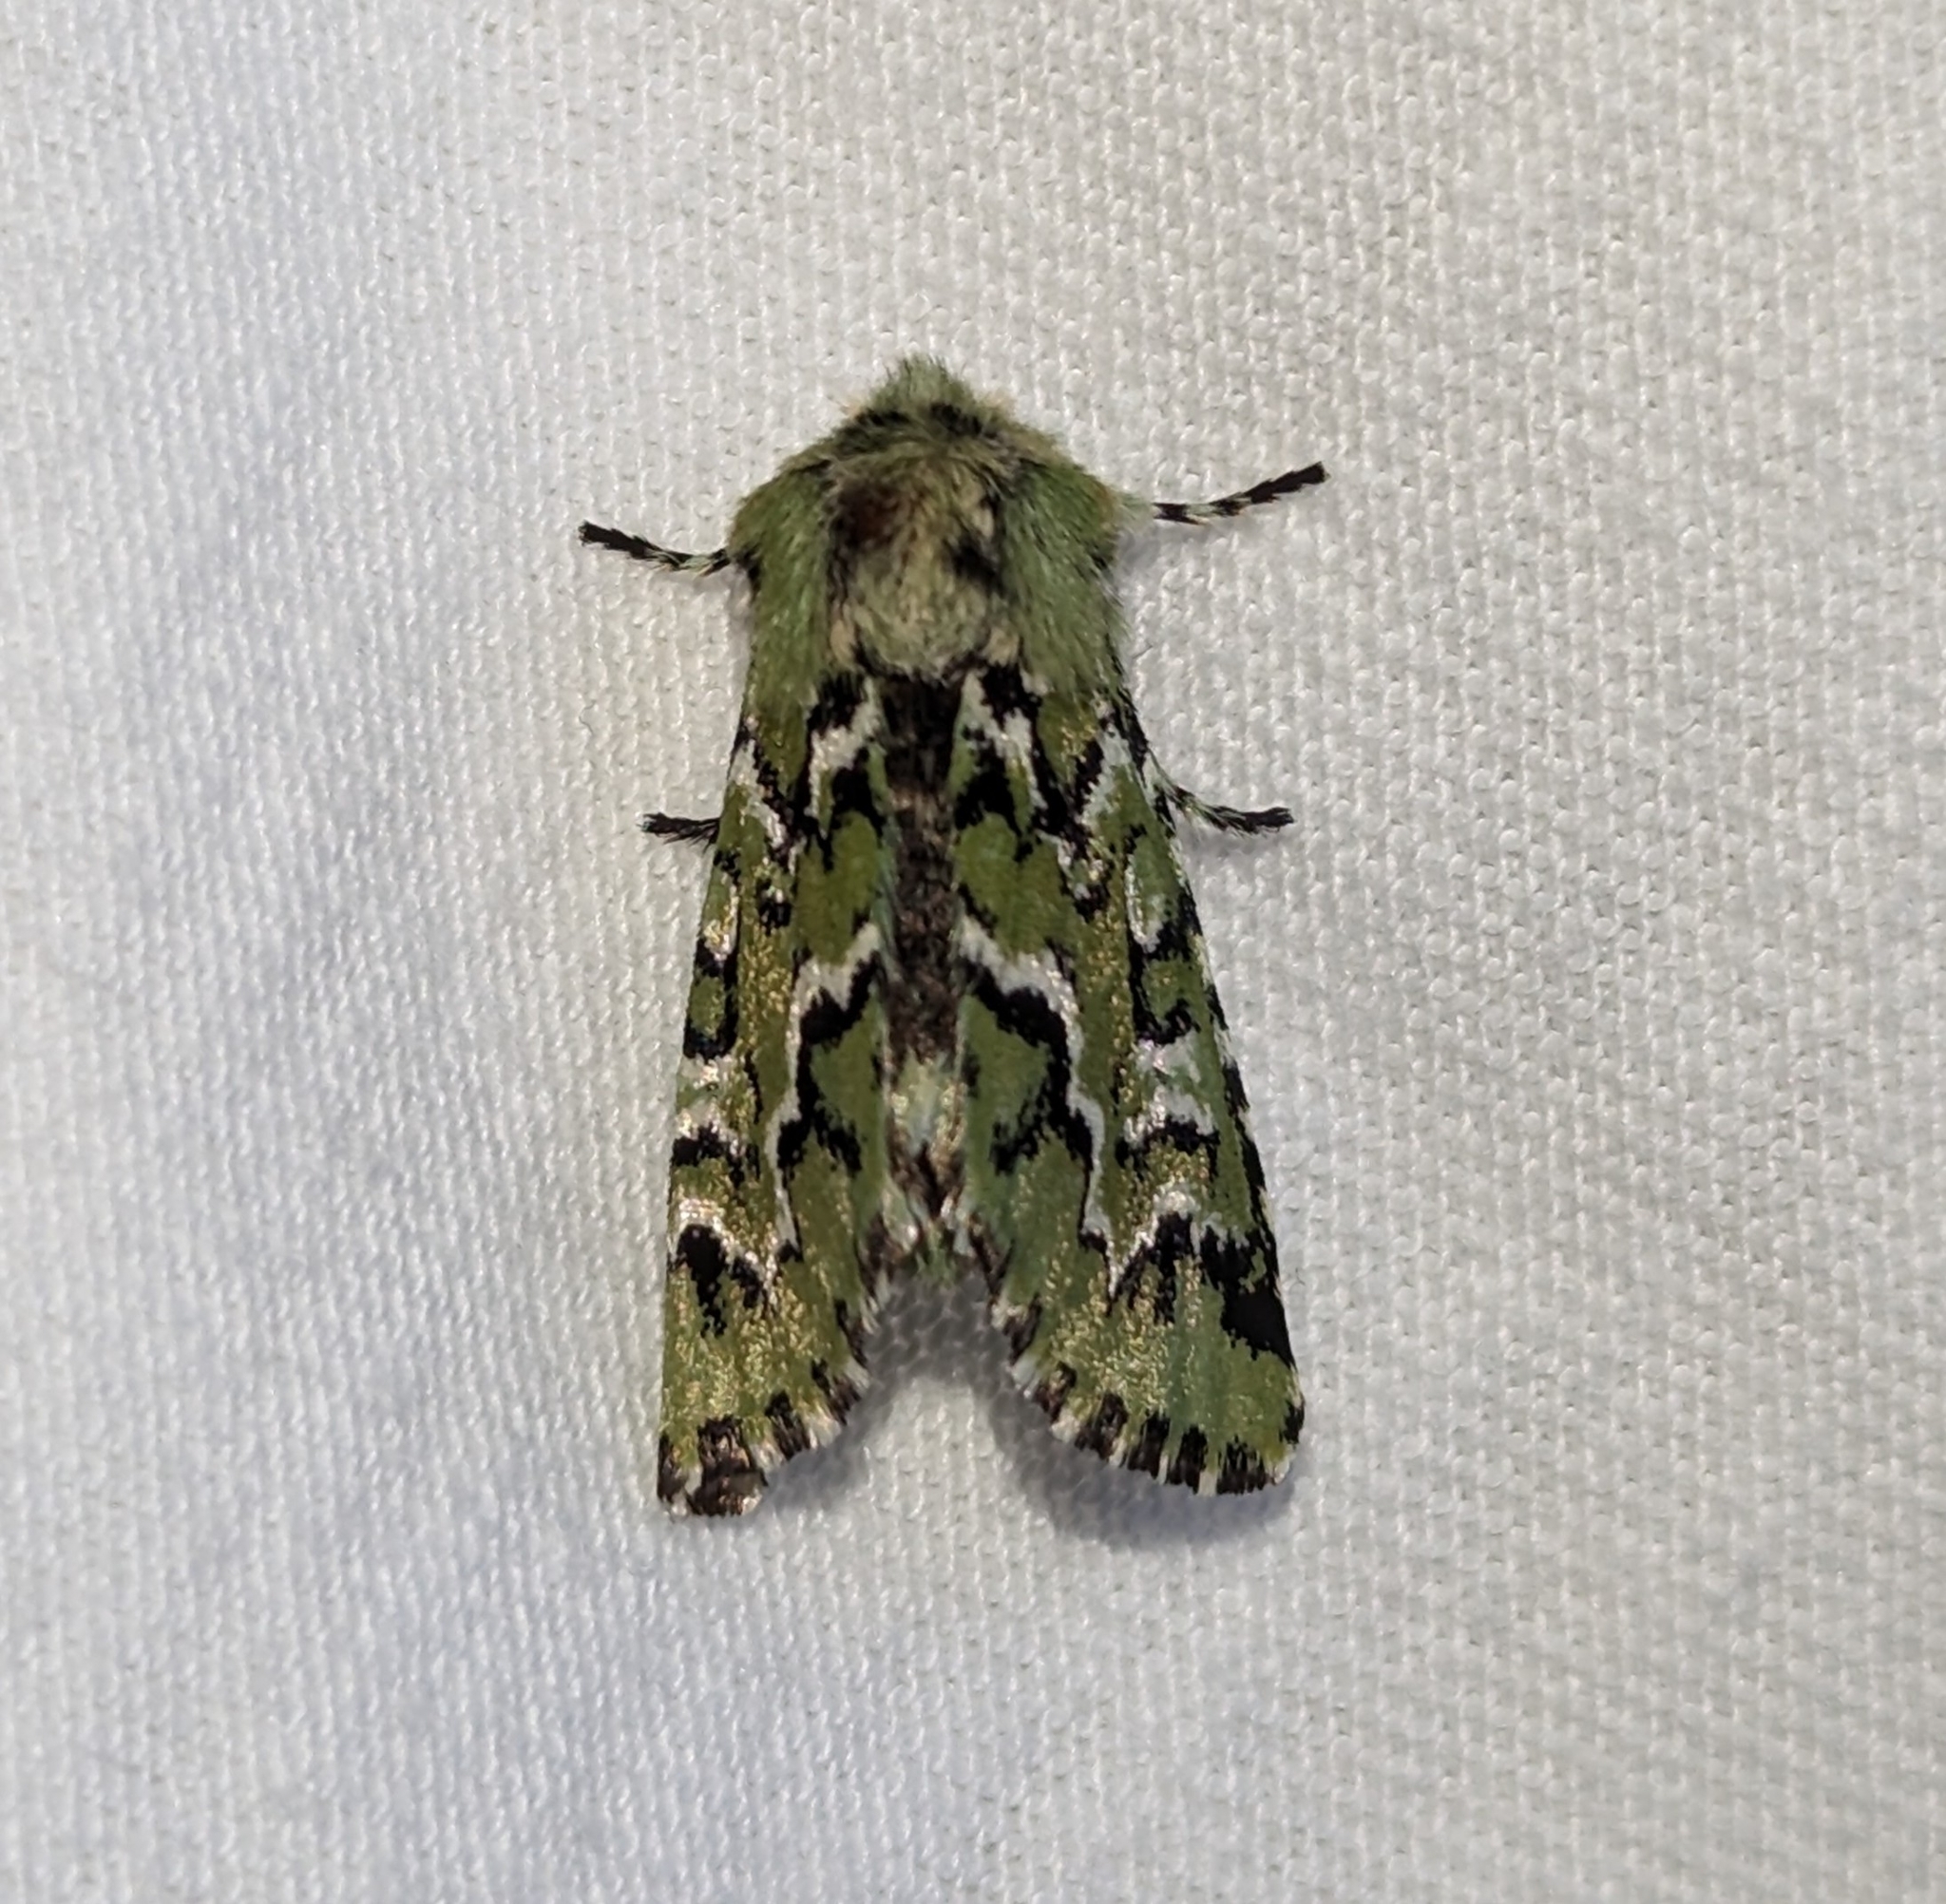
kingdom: Animalia
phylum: Arthropoda
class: Insecta
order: Lepidoptera
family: Noctuidae
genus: Feralia
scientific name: Feralia deceptiva
